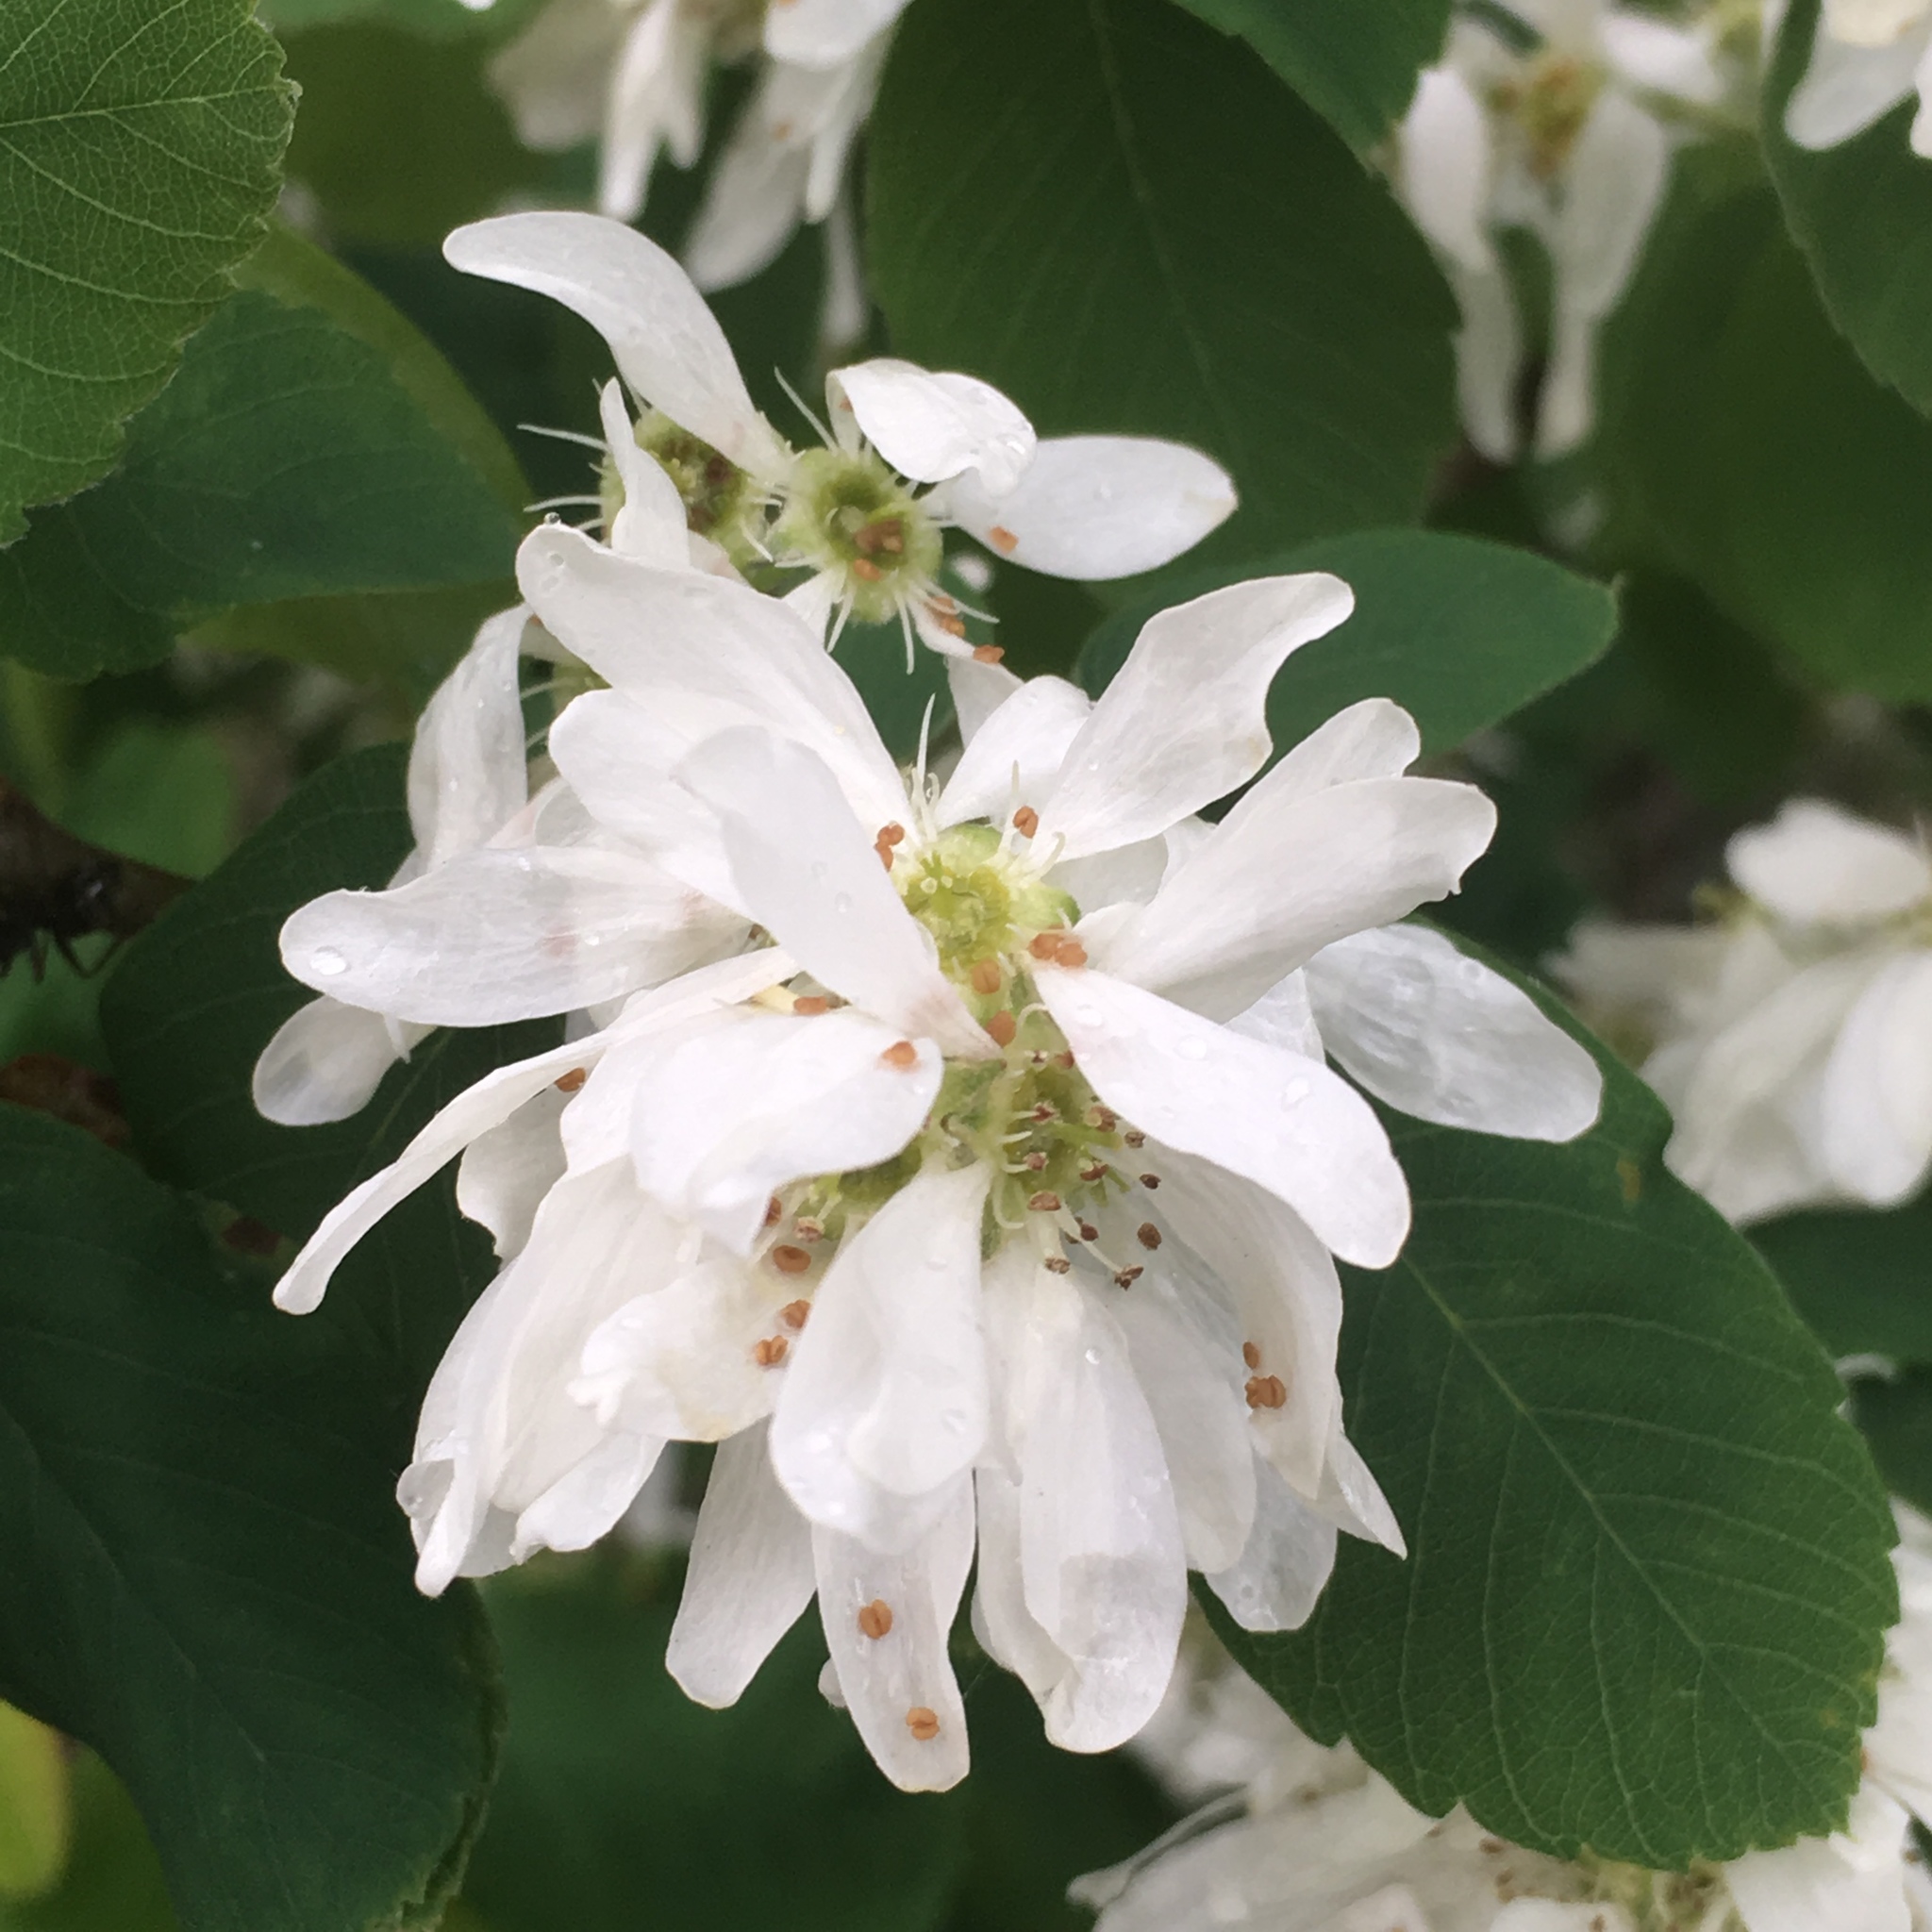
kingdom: Plantae
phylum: Tracheophyta
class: Magnoliopsida
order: Rosales
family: Rosaceae
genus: Amelanchier
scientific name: Amelanchier alnifolia
